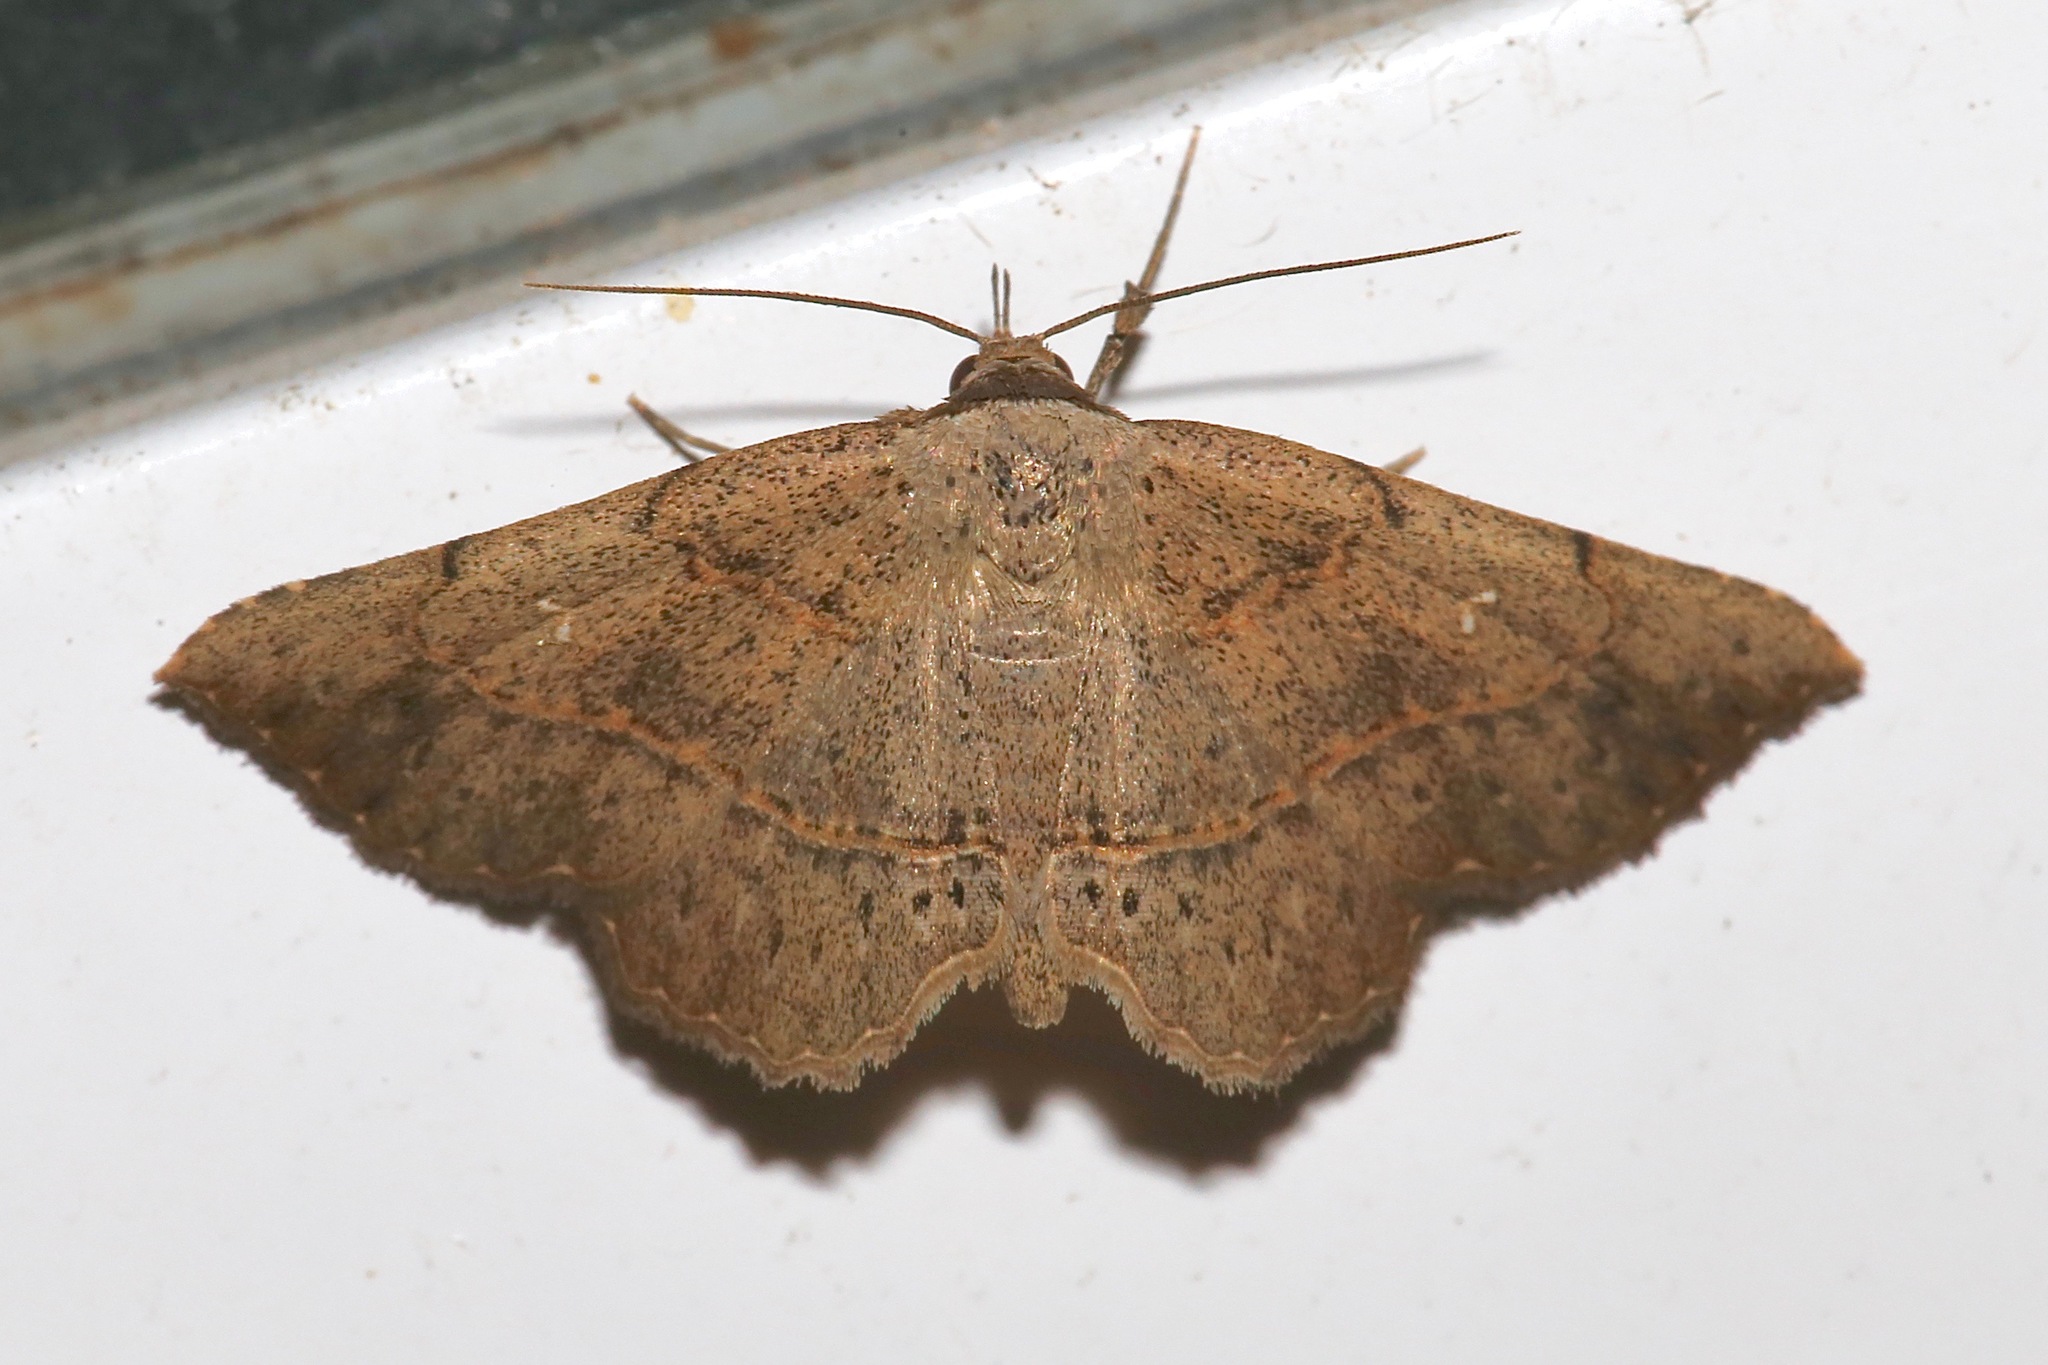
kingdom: Animalia
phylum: Arthropoda
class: Insecta
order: Lepidoptera
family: Erebidae
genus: Renodes
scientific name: Renodes curviluna
